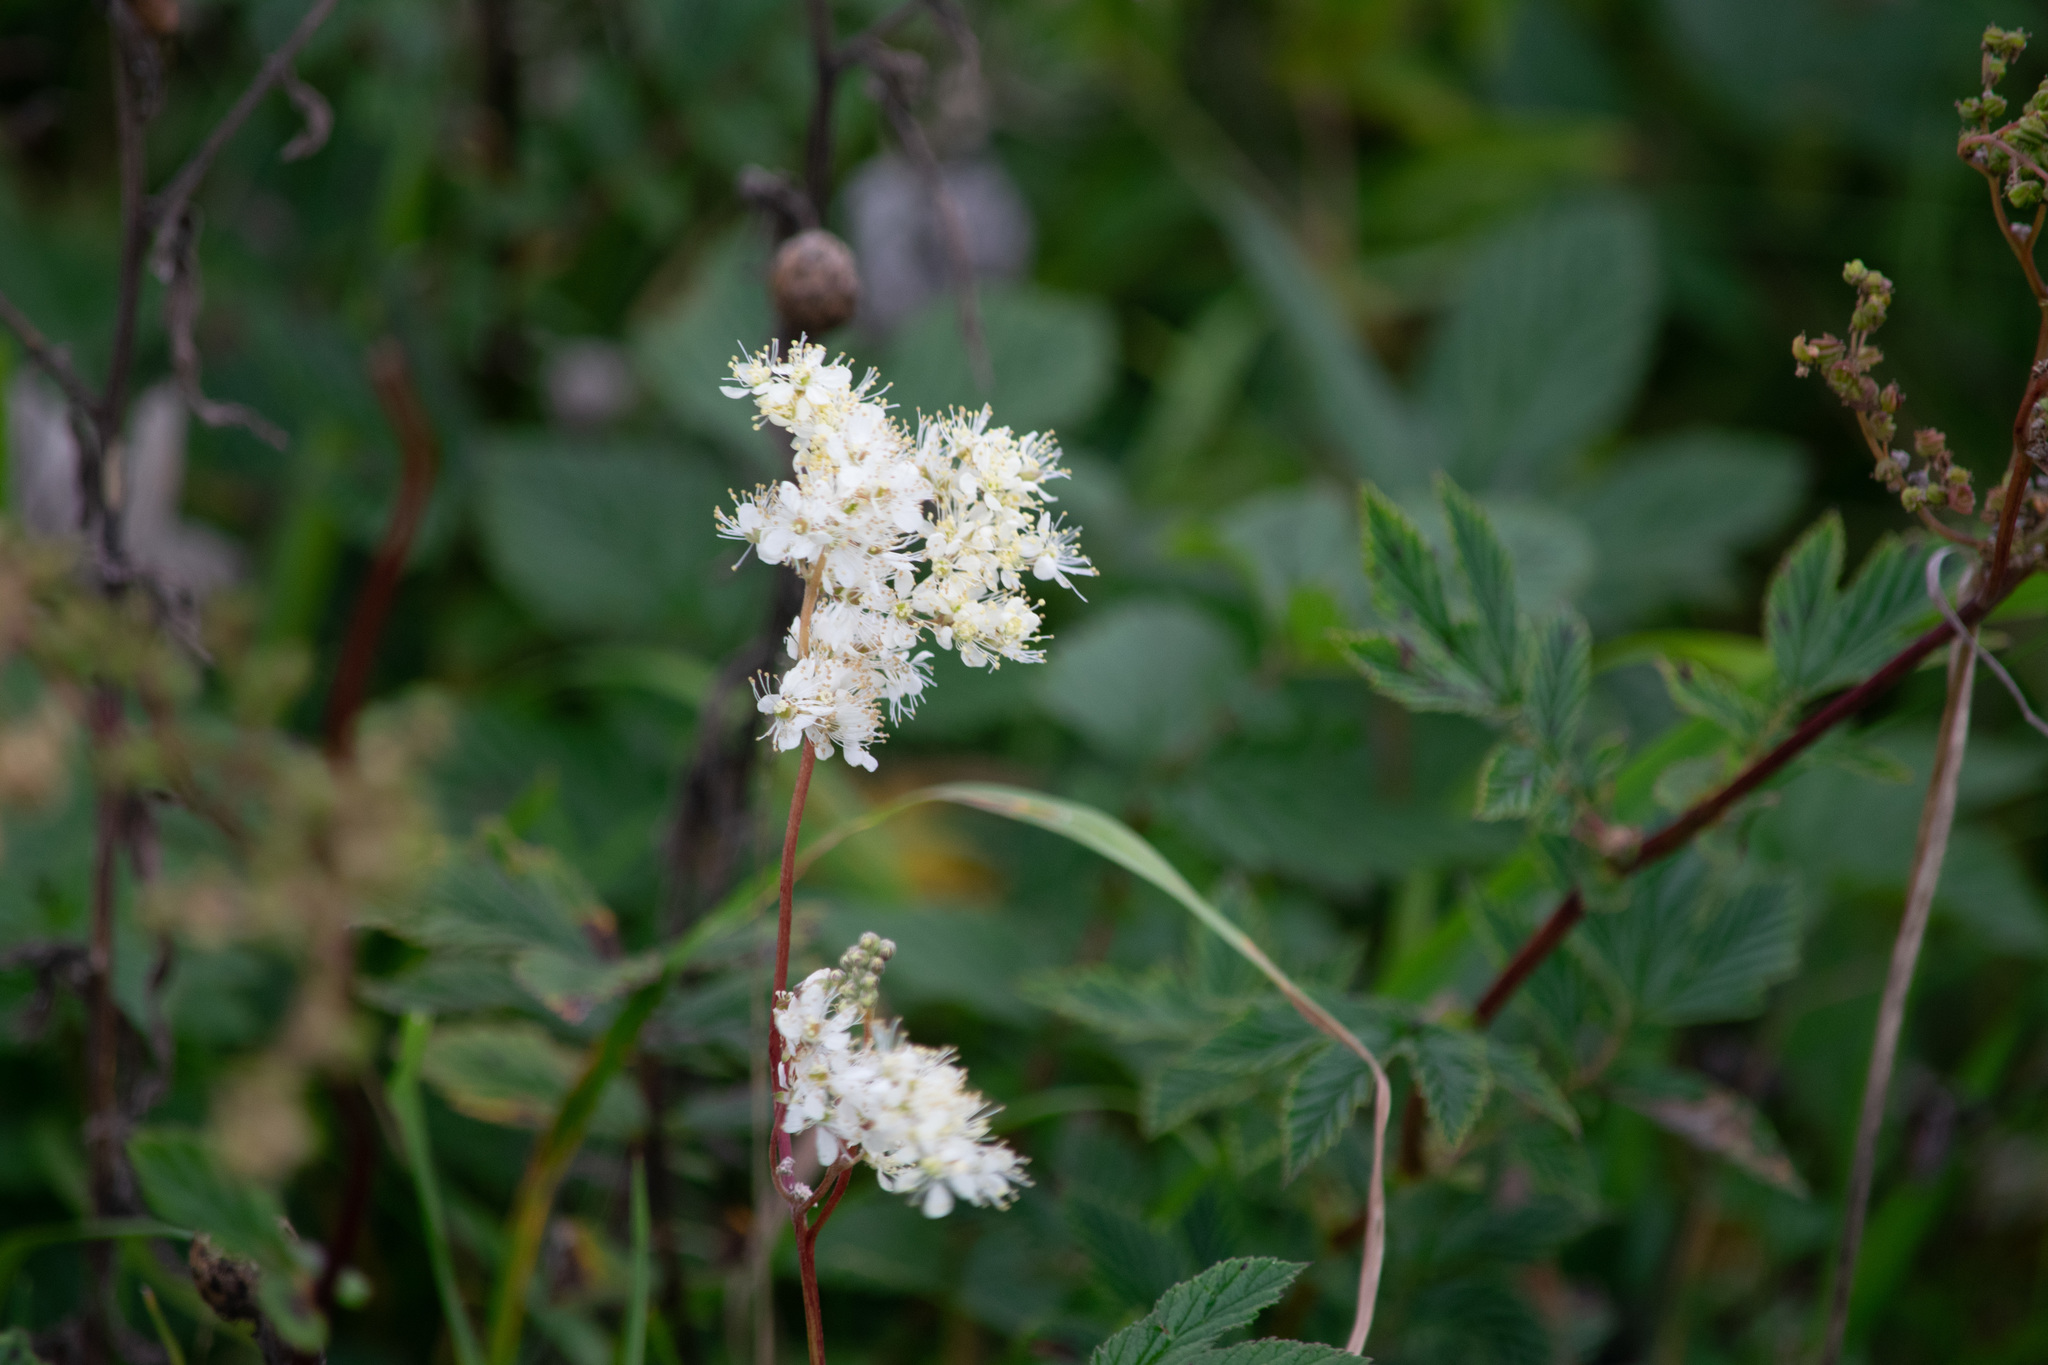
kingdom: Plantae
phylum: Tracheophyta
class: Magnoliopsida
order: Rosales
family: Rosaceae
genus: Filipendula
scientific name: Filipendula ulmaria
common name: Meadowsweet
